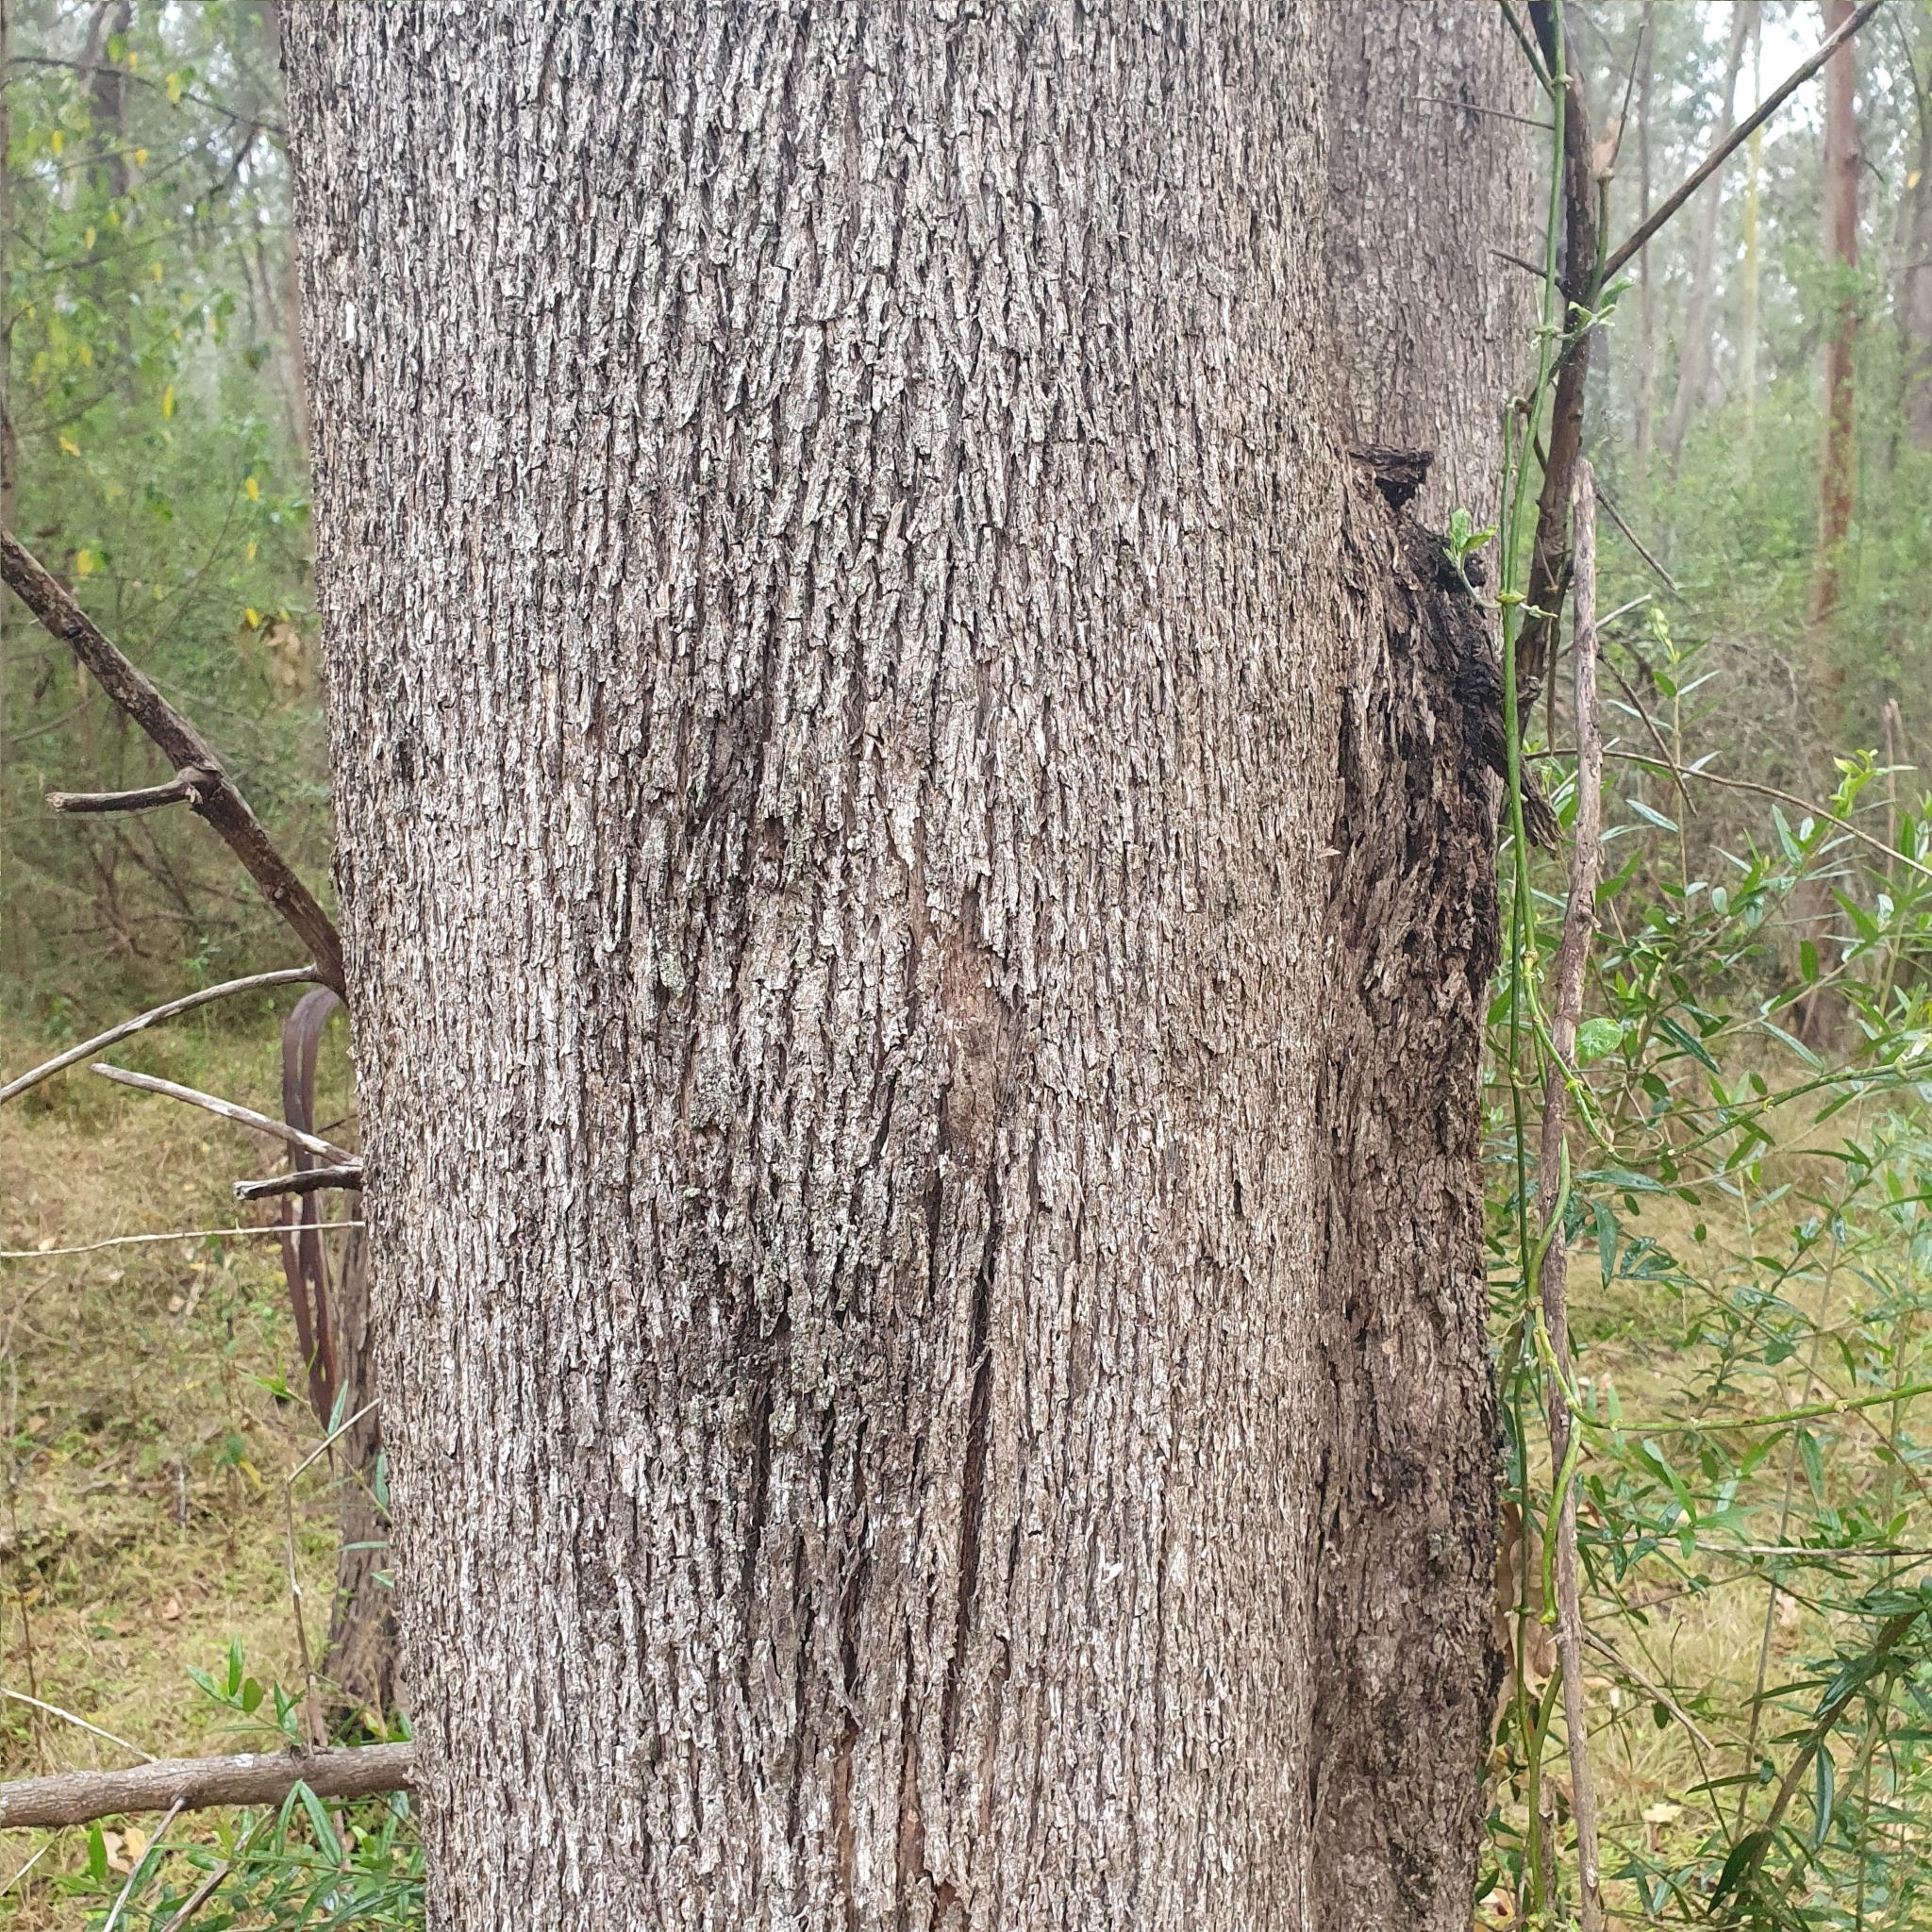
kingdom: Plantae
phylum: Tracheophyta
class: Magnoliopsida
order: Myrtales
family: Myrtaceae
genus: Eucalyptus
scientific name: Eucalyptus moluccana
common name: Grey-box
